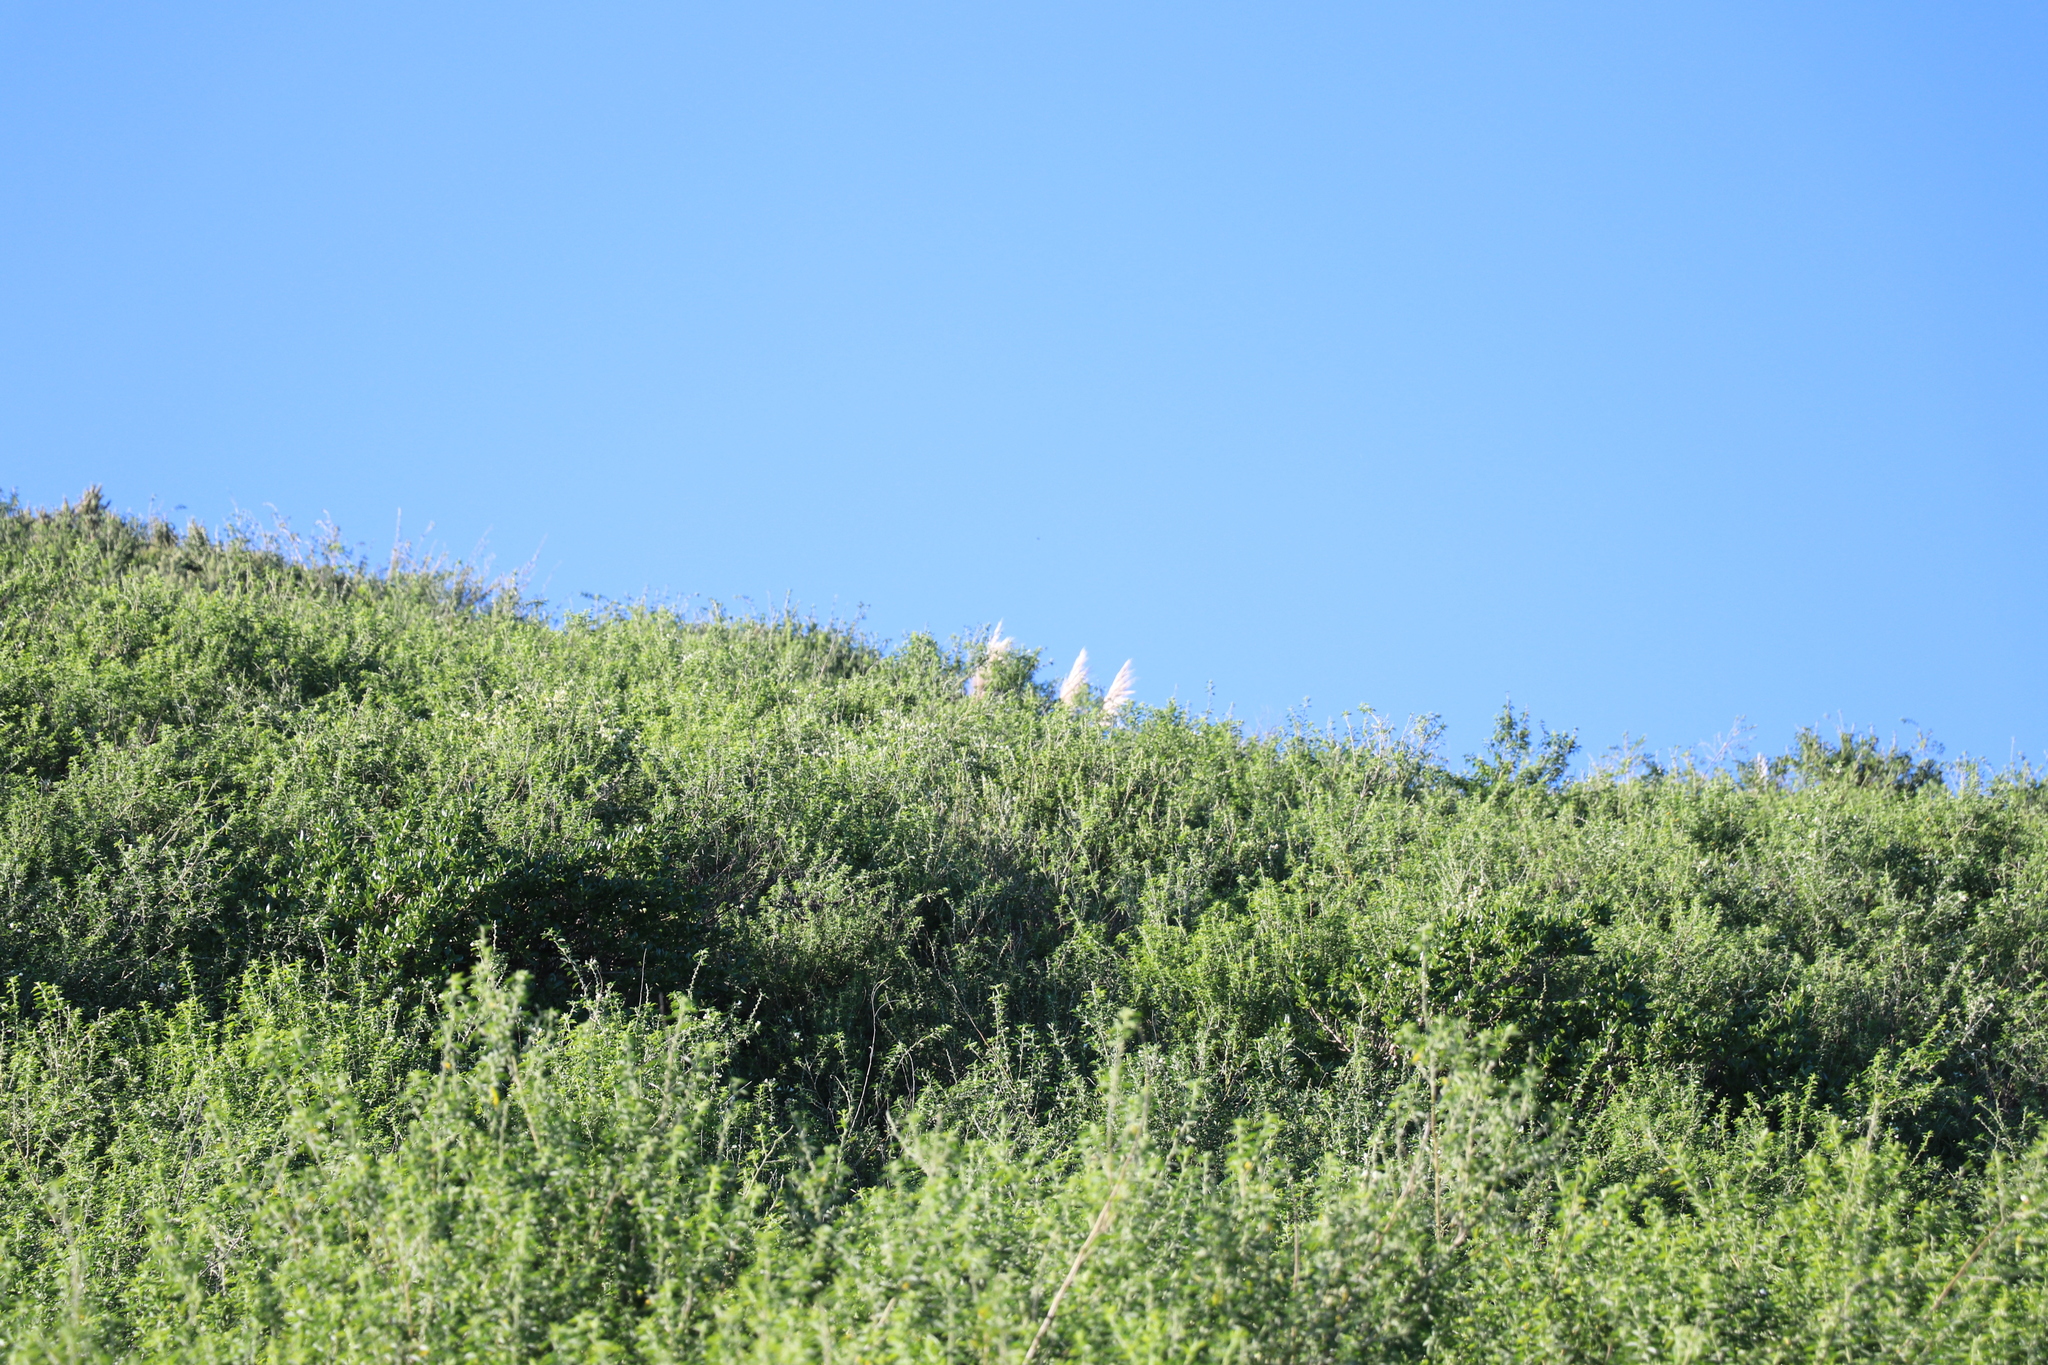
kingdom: Plantae
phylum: Tracheophyta
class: Liliopsida
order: Poales
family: Poaceae
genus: Cortaderia
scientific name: Cortaderia selloana
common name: Uruguayan pampas grass
